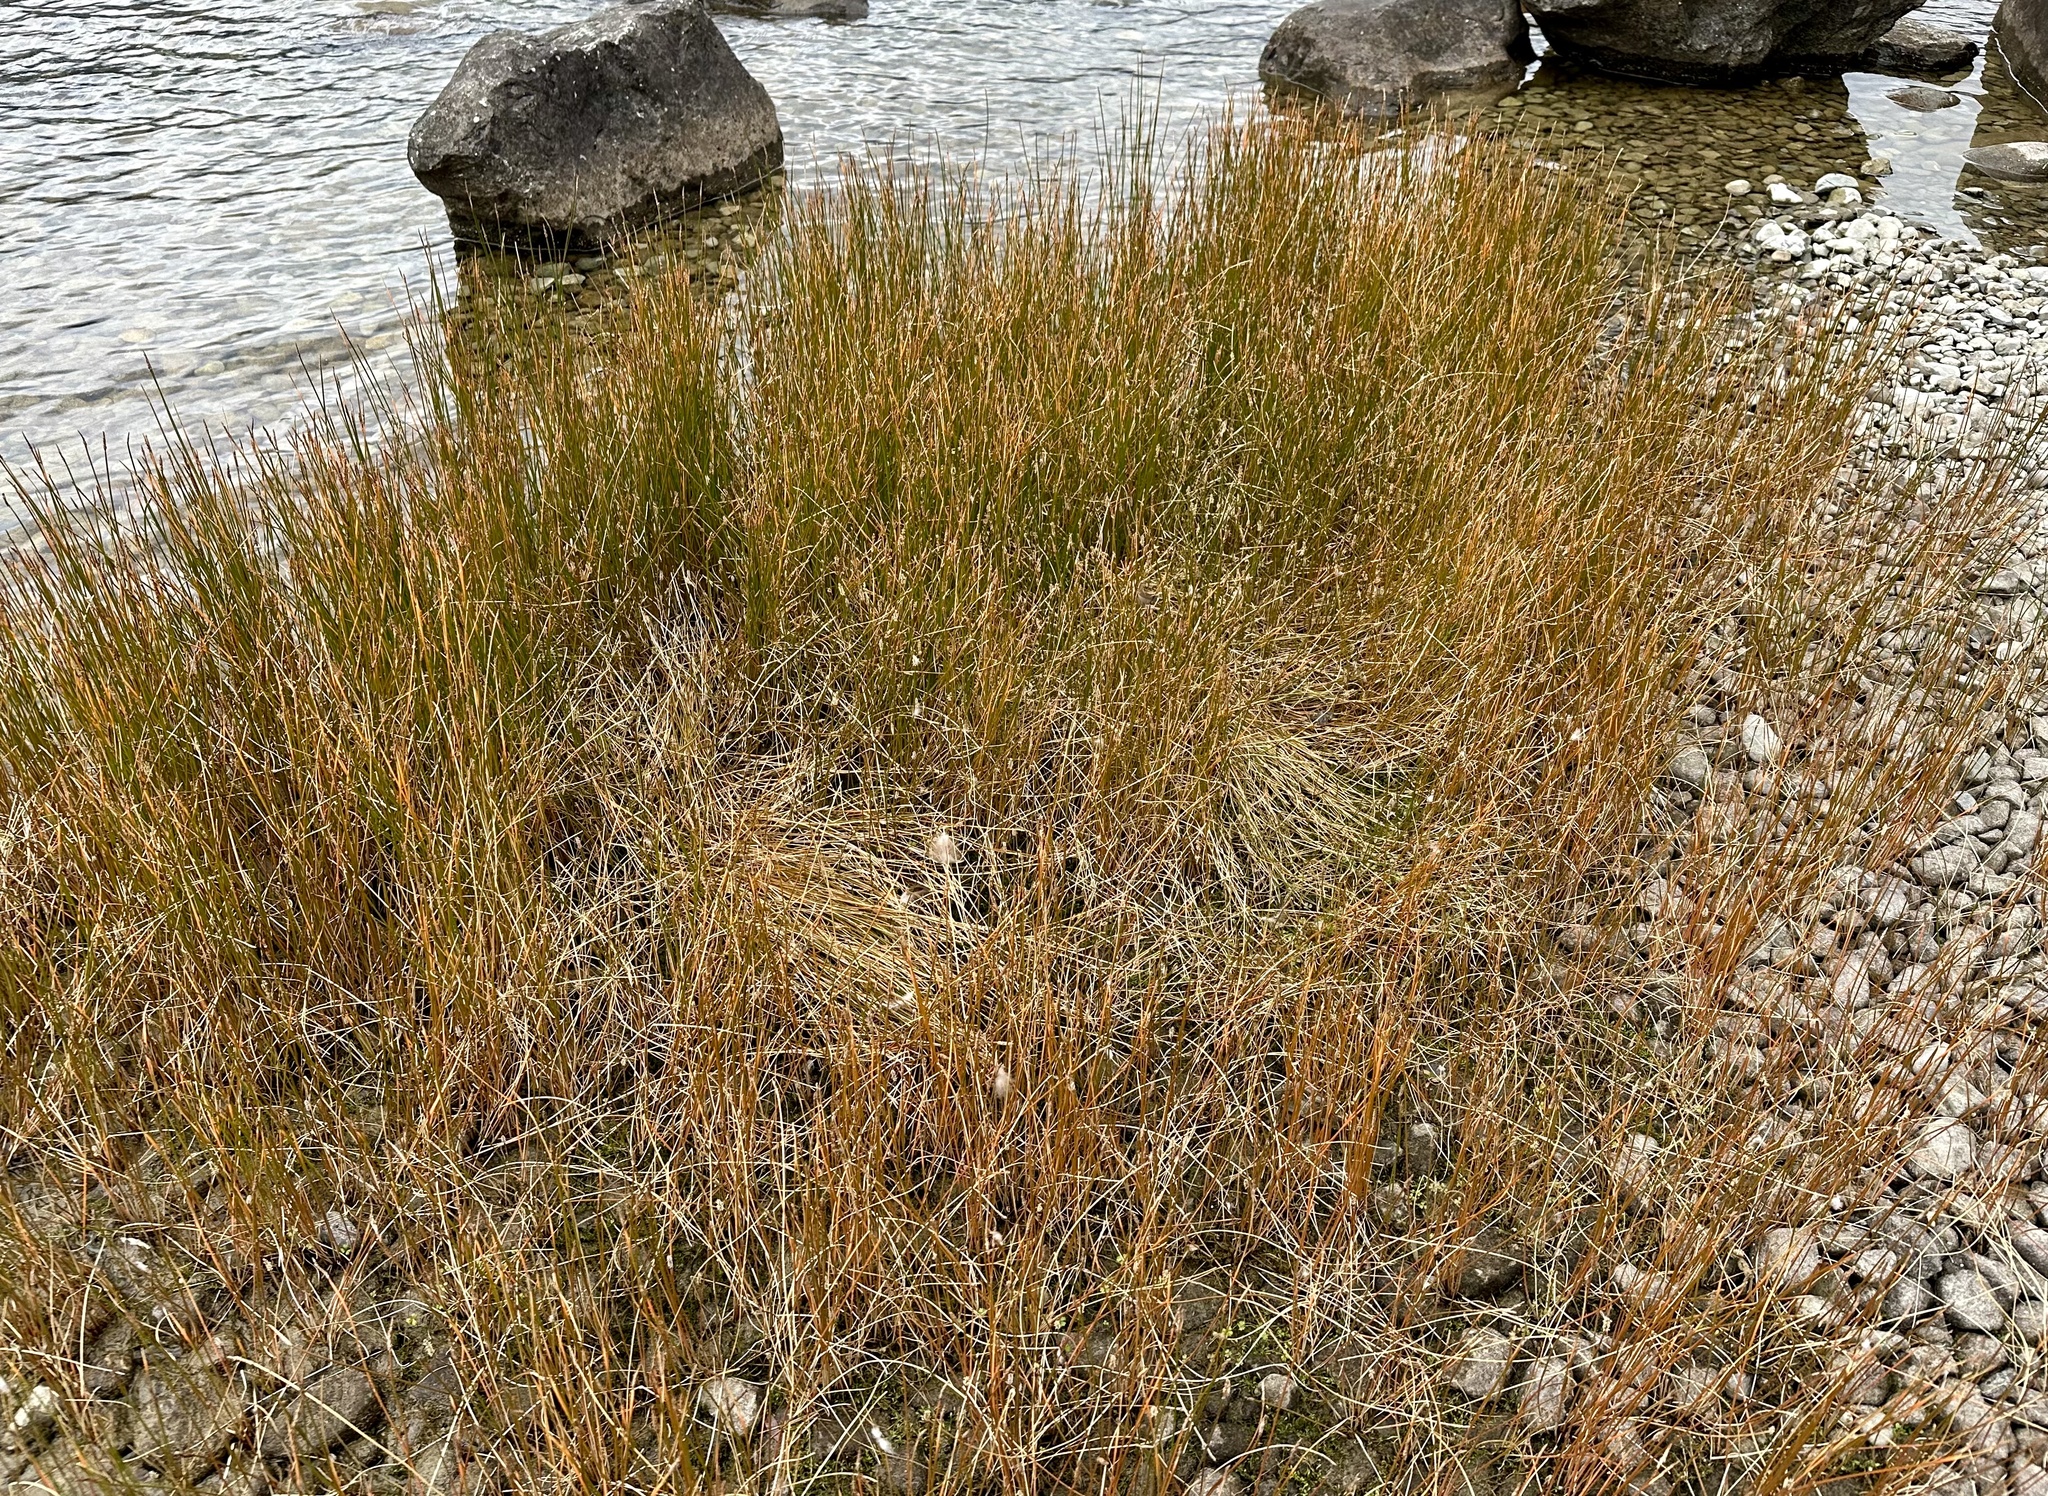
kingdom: Plantae
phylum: Tracheophyta
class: Liliopsida
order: Poales
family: Cyperaceae
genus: Eleocharis
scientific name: Eleocharis acuta
